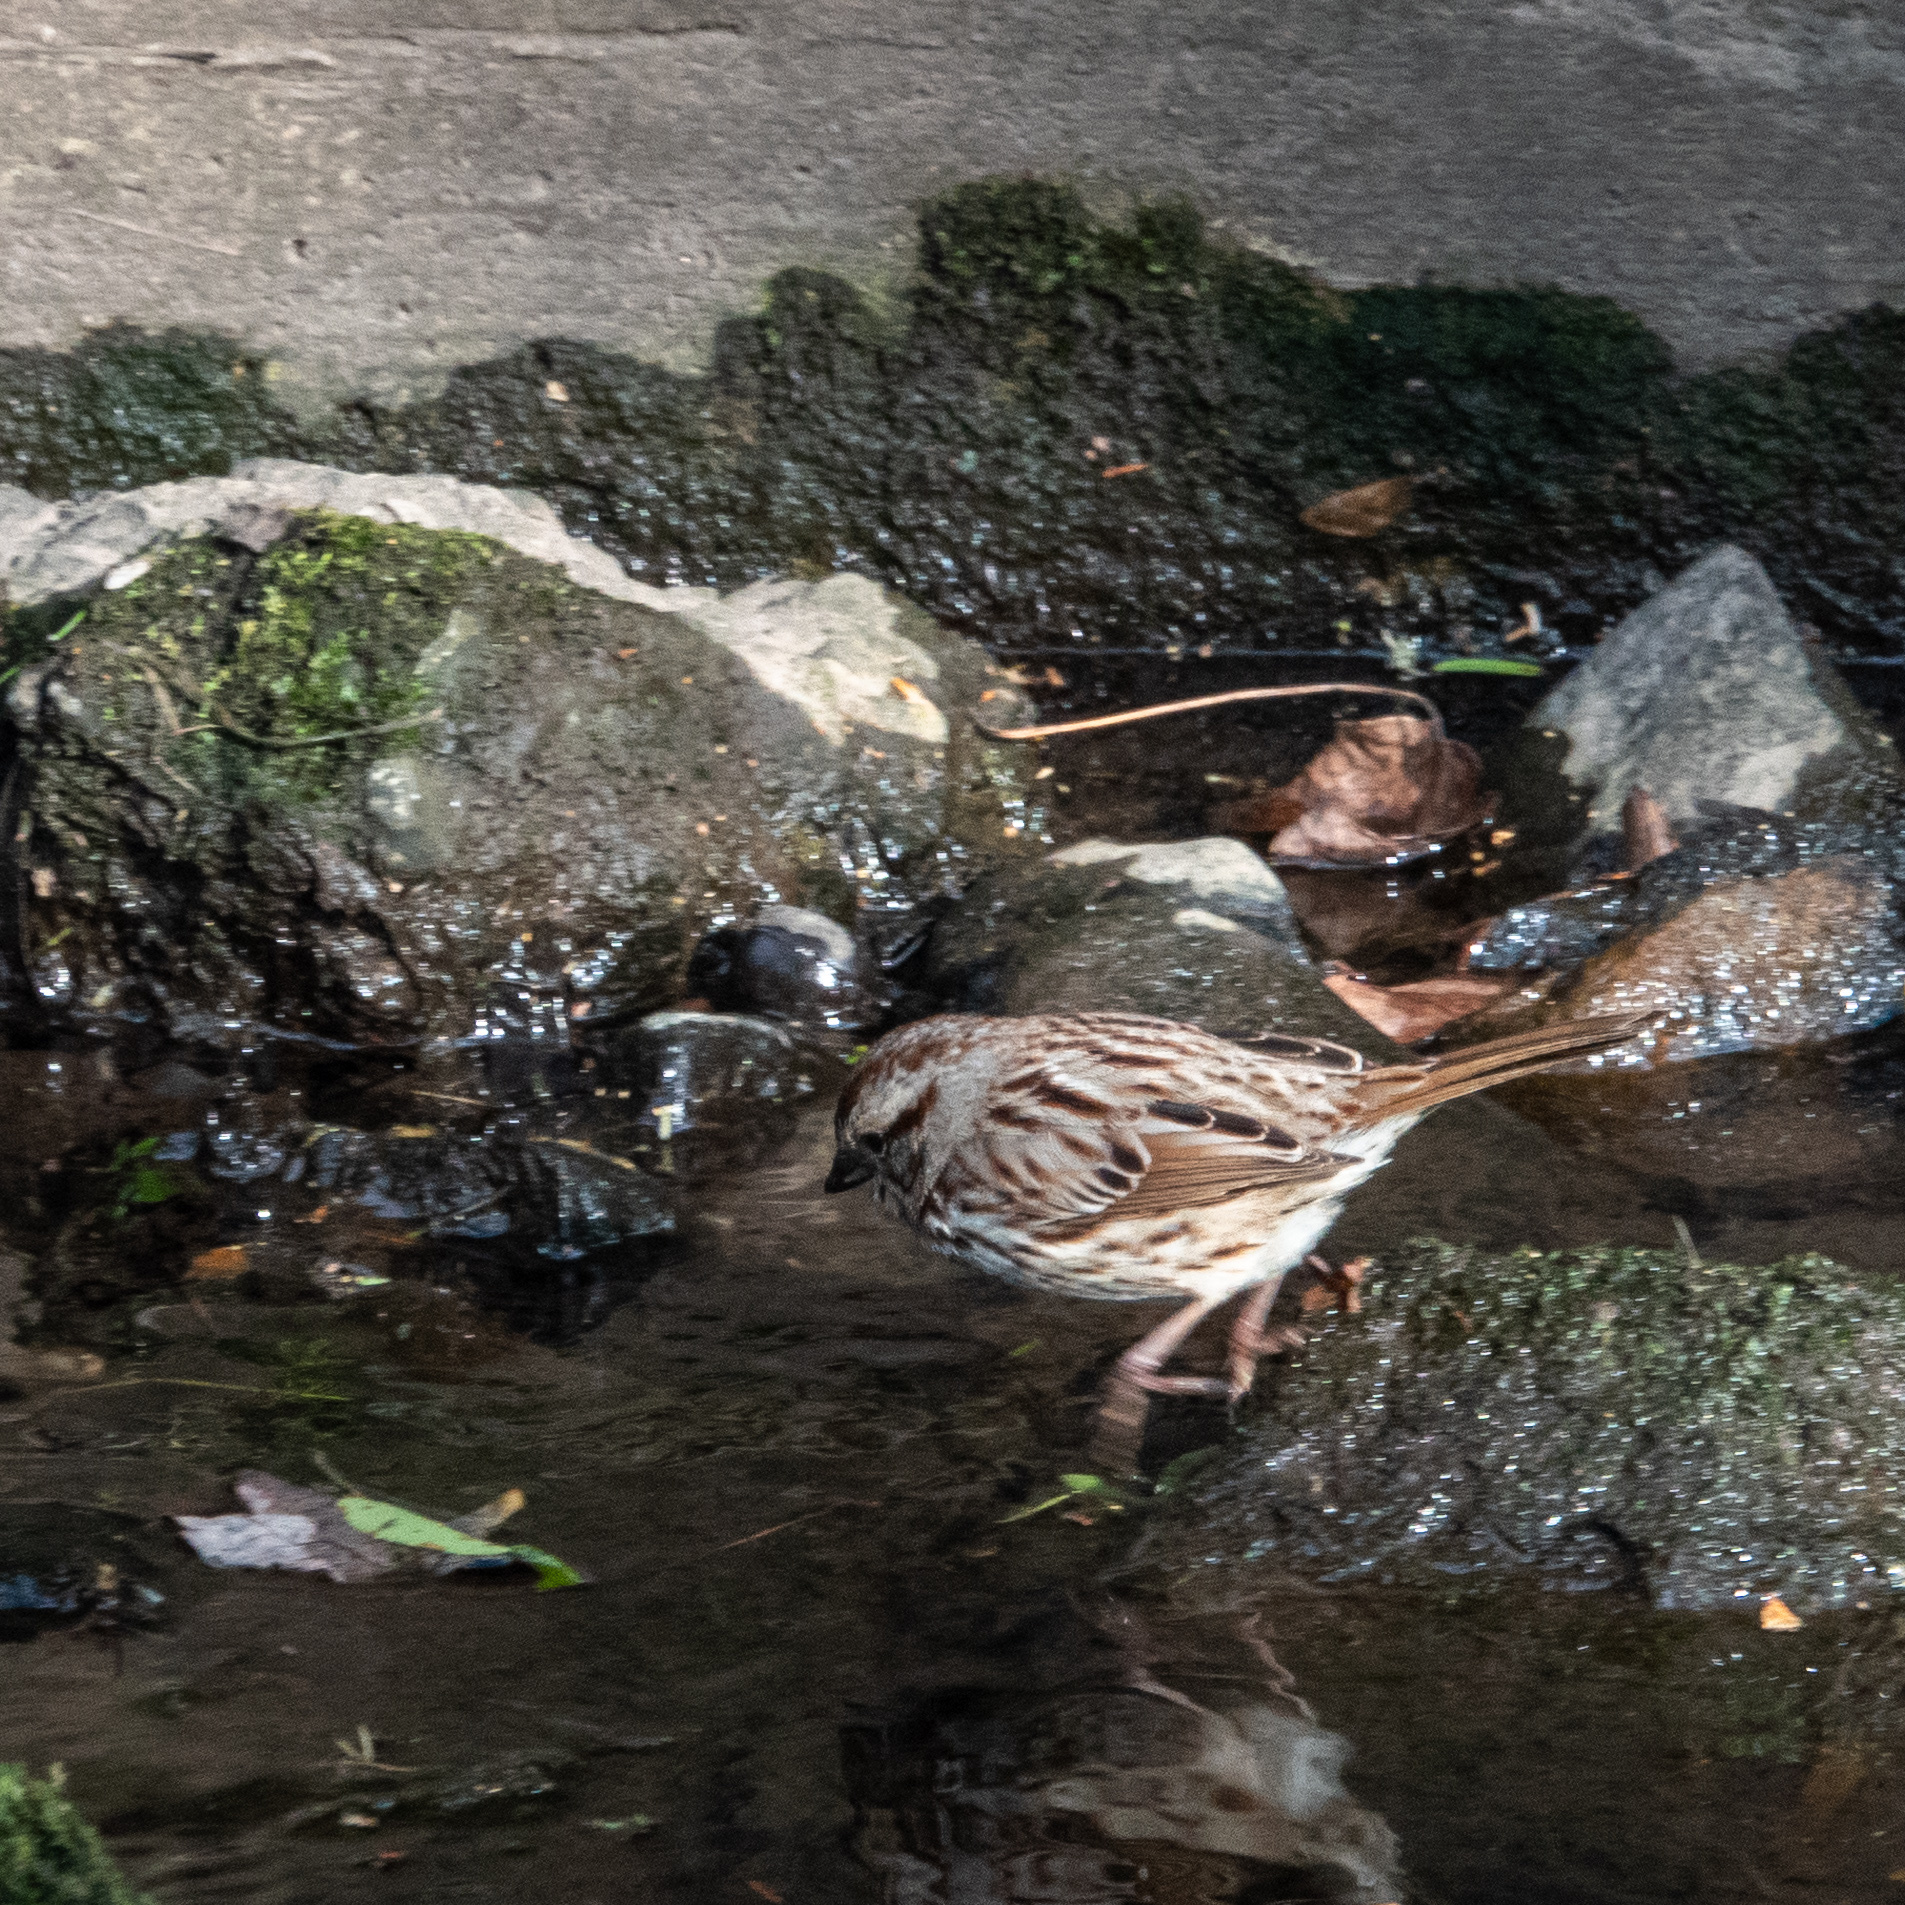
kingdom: Animalia
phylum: Chordata
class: Aves
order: Passeriformes
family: Passerellidae
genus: Melospiza
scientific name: Melospiza melodia
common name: Song sparrow
